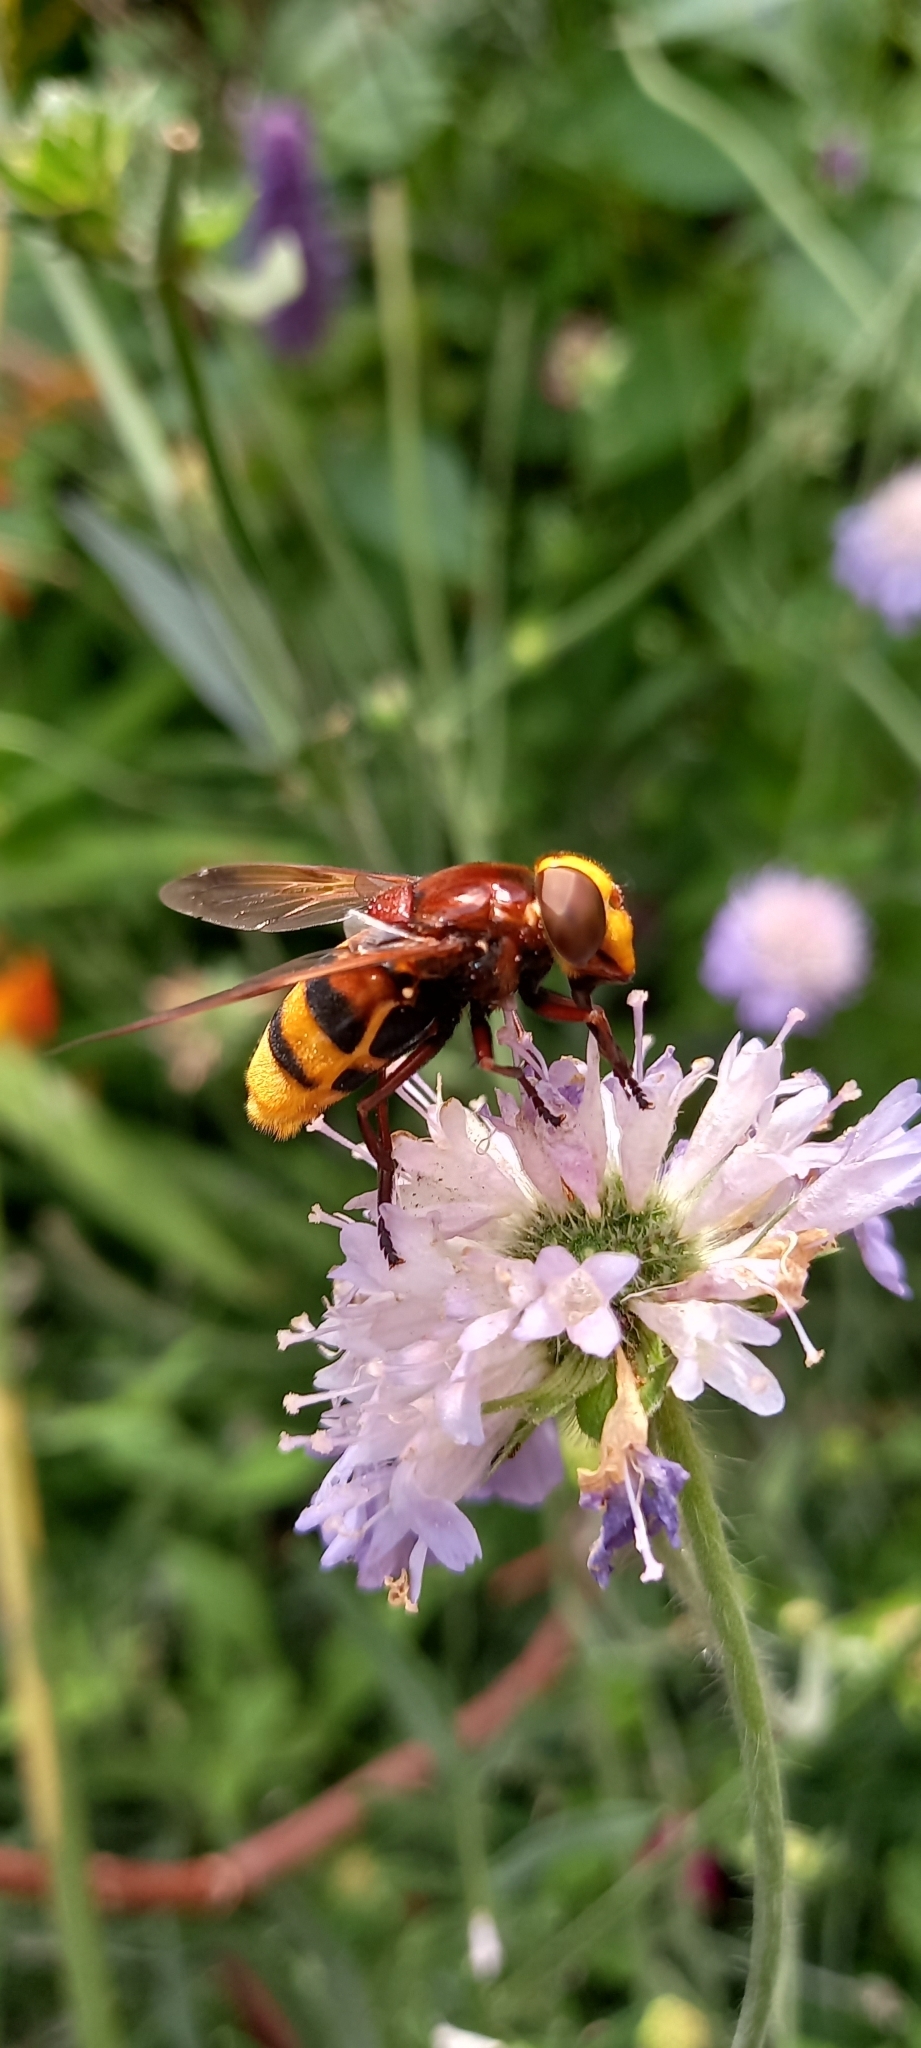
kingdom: Animalia
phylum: Arthropoda
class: Insecta
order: Diptera
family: Syrphidae
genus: Volucella
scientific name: Volucella zonaria
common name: Hornet hoverfly
